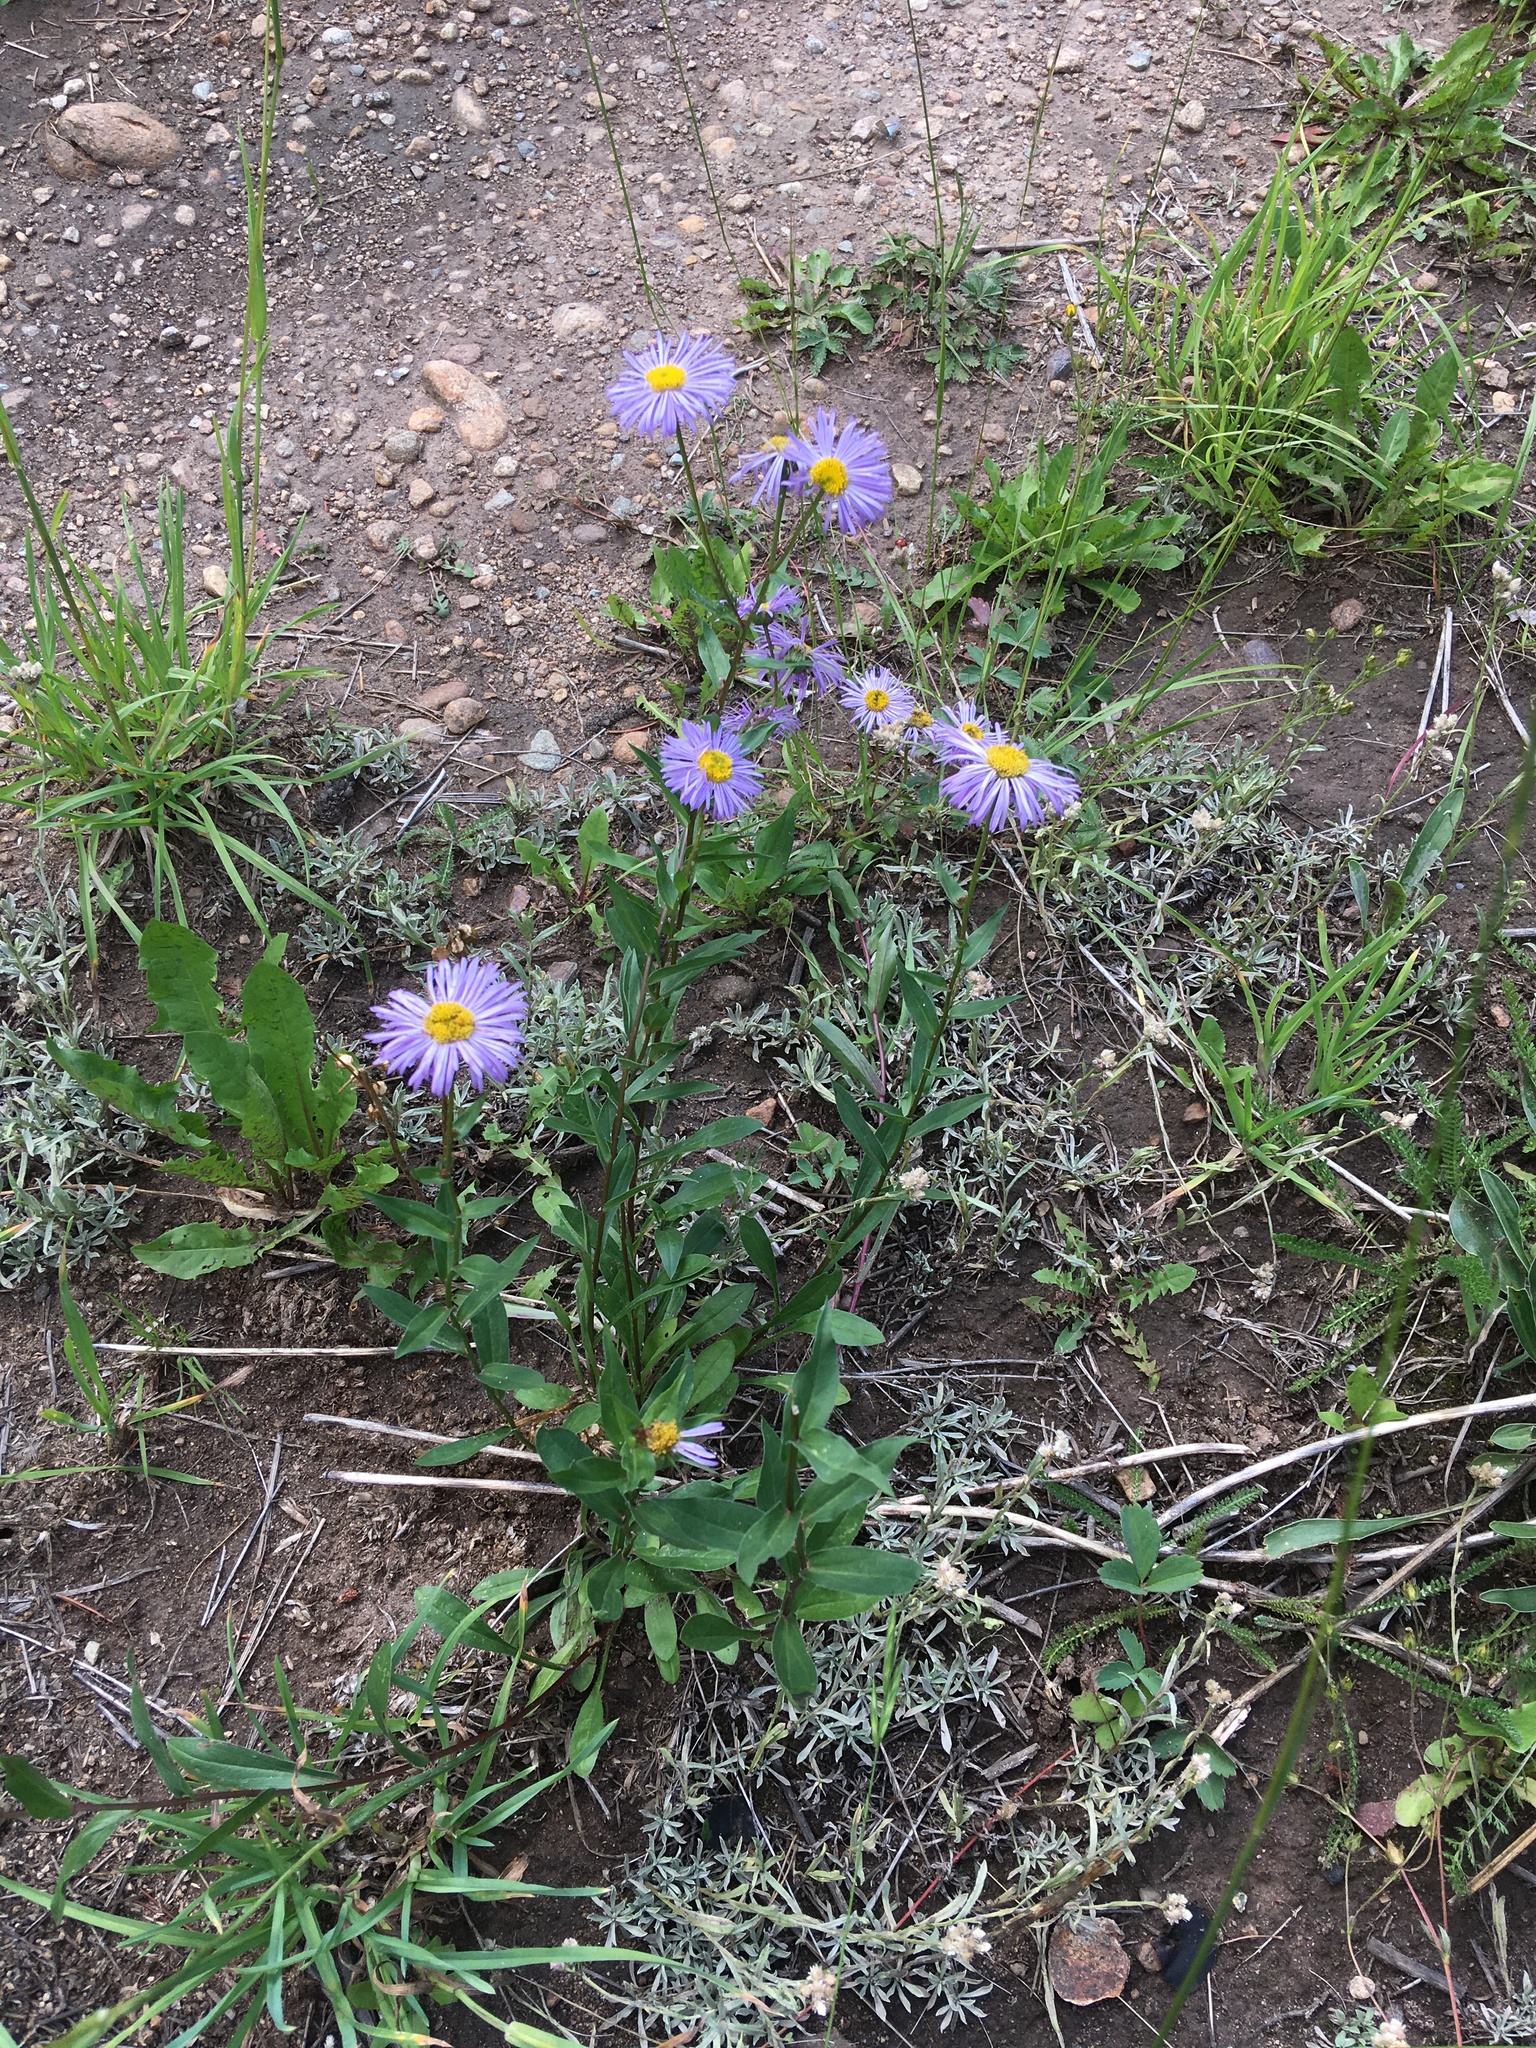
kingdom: Plantae
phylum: Tracheophyta
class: Magnoliopsida
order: Asterales
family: Asteraceae
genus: Erigeron
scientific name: Erigeron speciosus
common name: Aspen fleabane
